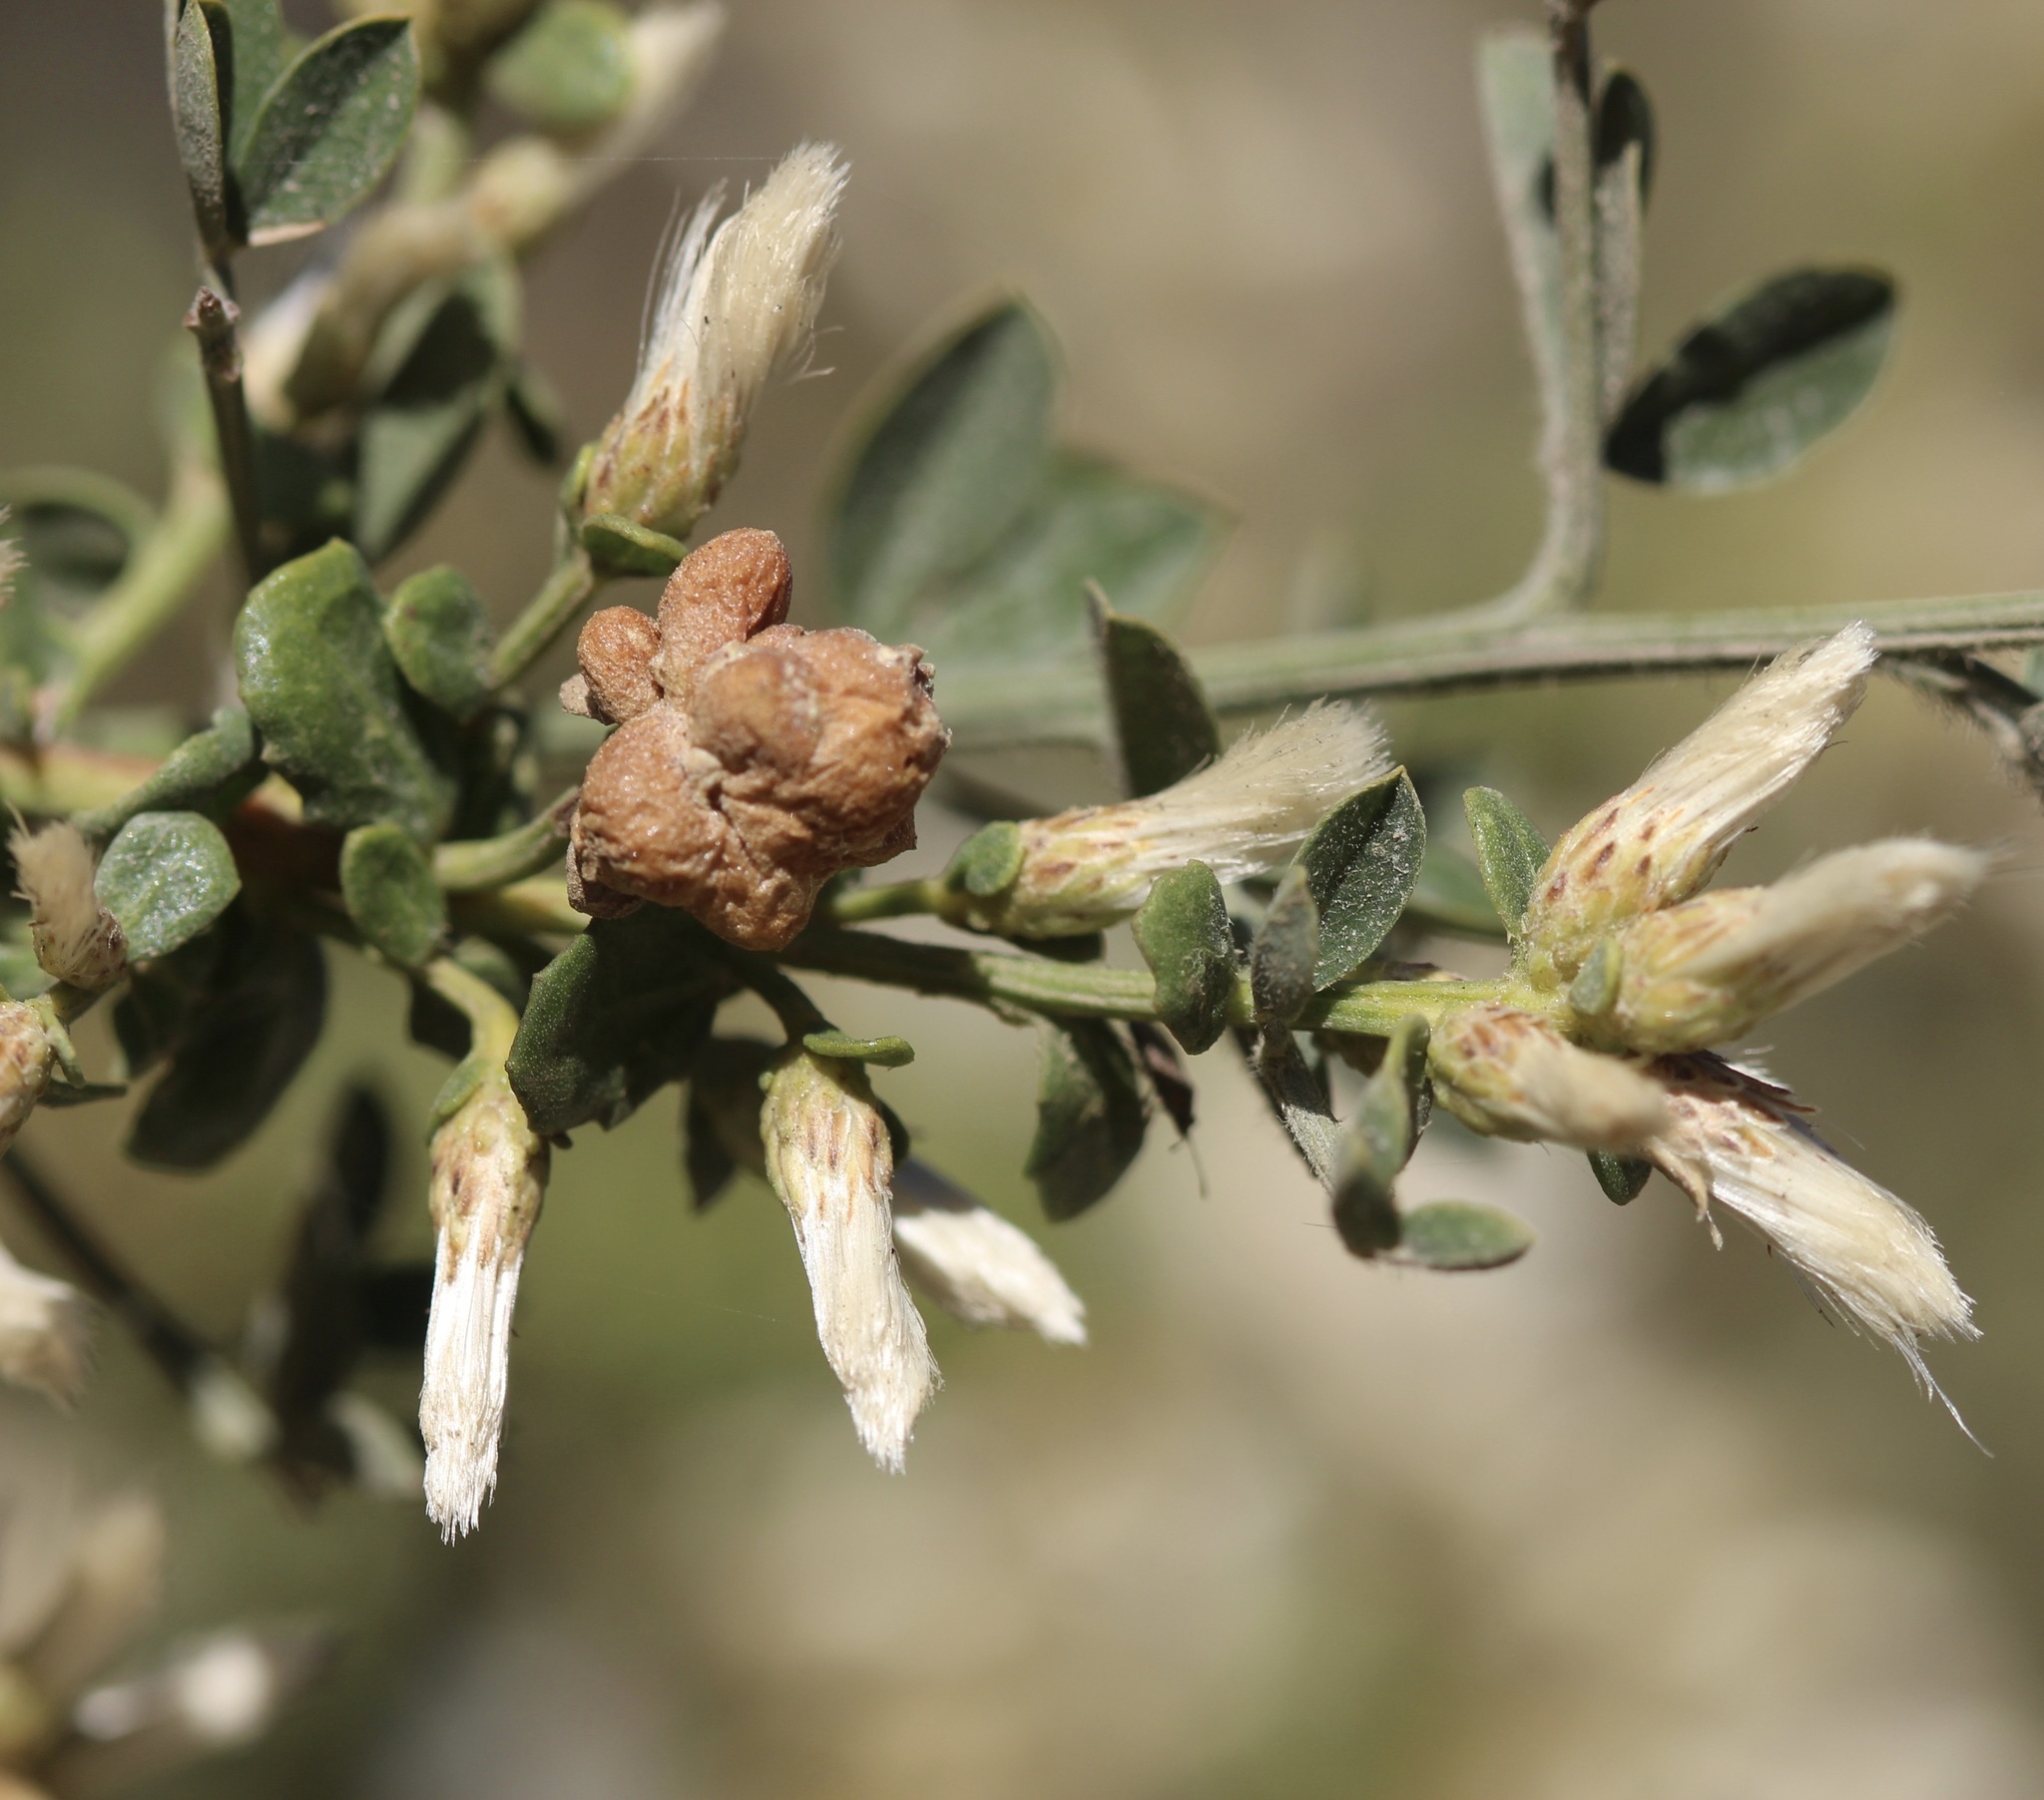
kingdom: Animalia
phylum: Arthropoda
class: Insecta
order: Diptera
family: Cecidomyiidae
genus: Rhopalomyia
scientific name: Rhopalomyia californica
